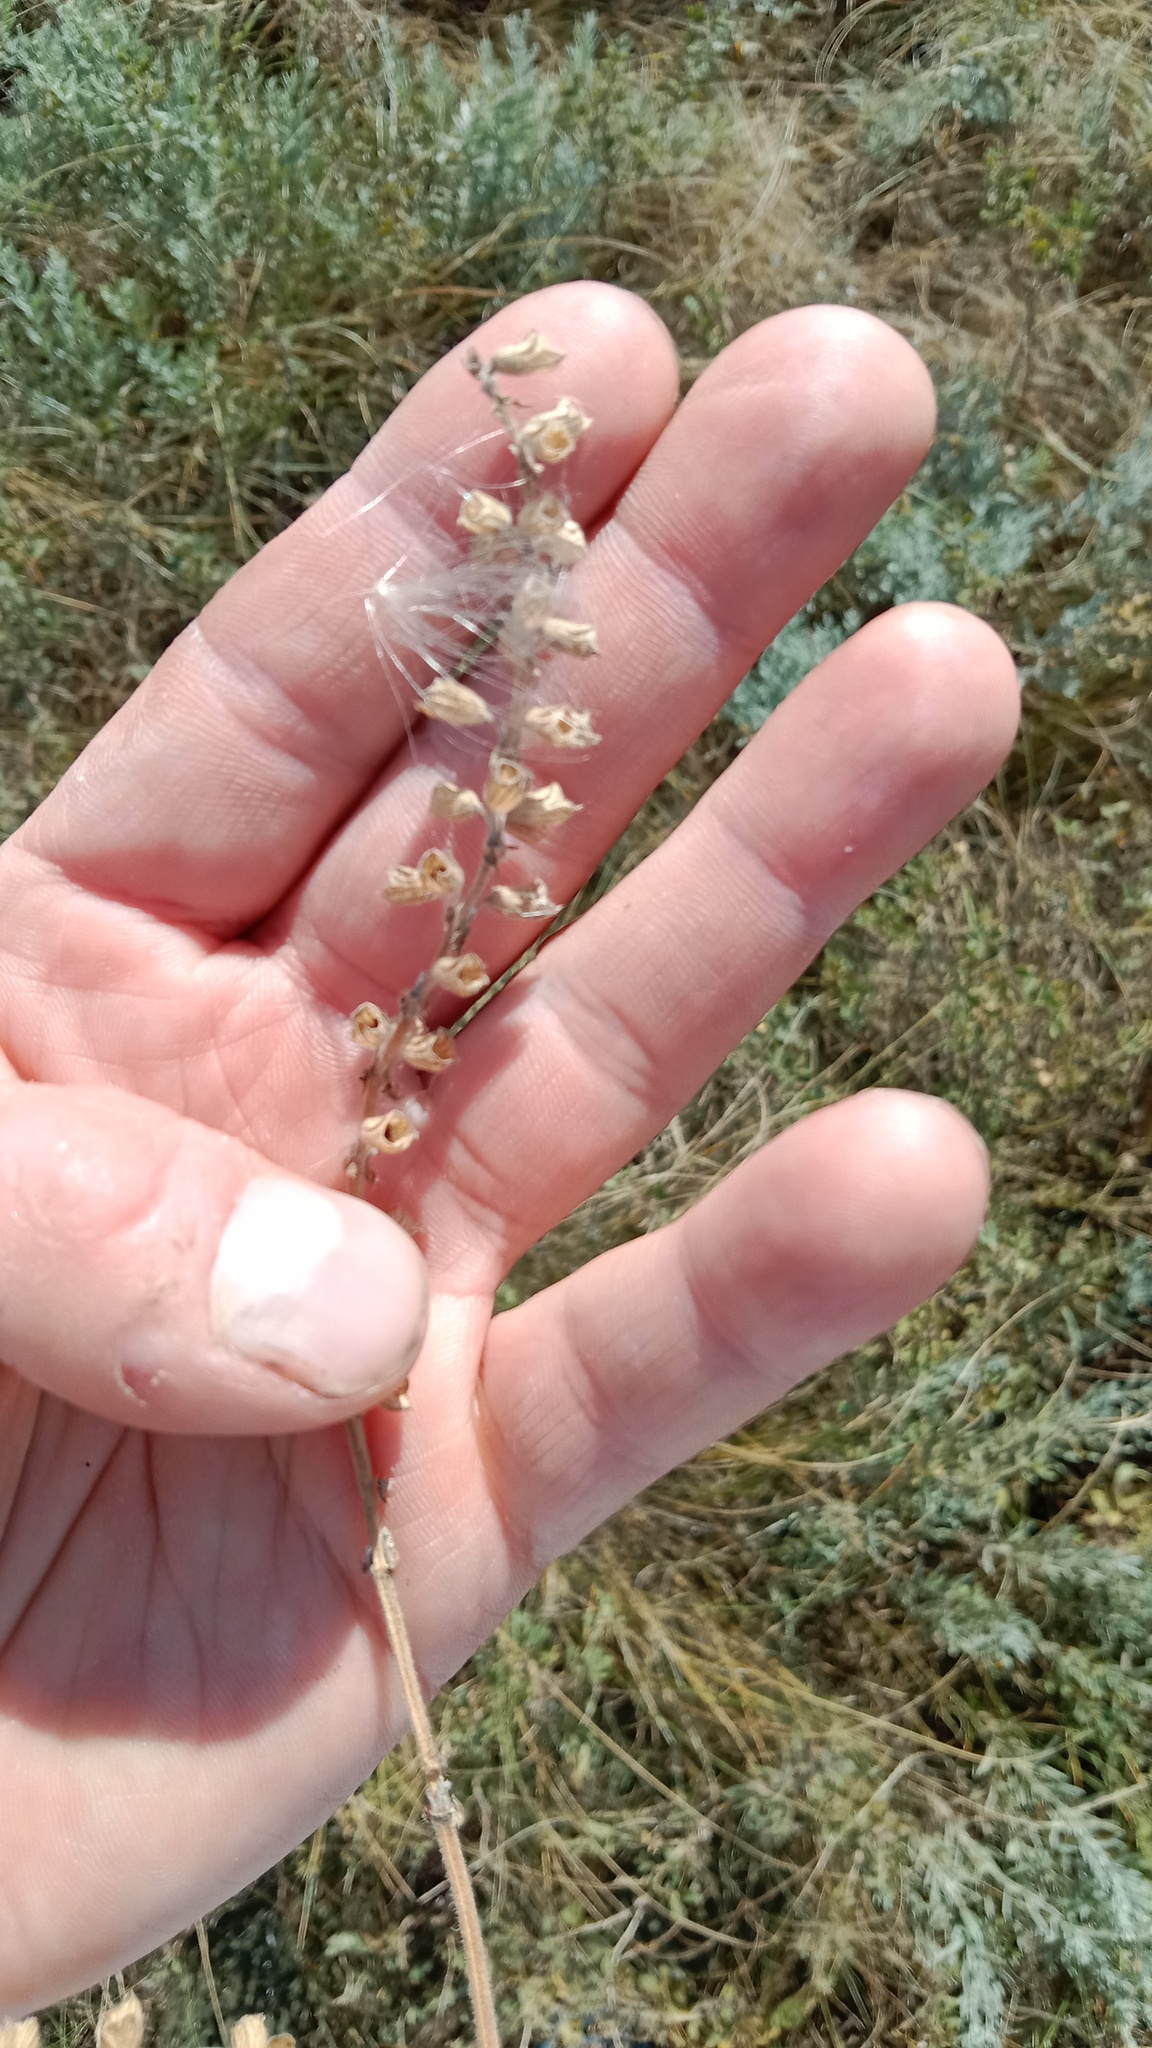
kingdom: Plantae
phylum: Tracheophyta
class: Magnoliopsida
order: Lamiales
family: Lamiaceae
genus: Salvia
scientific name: Salvia nutans
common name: Nodding sage
